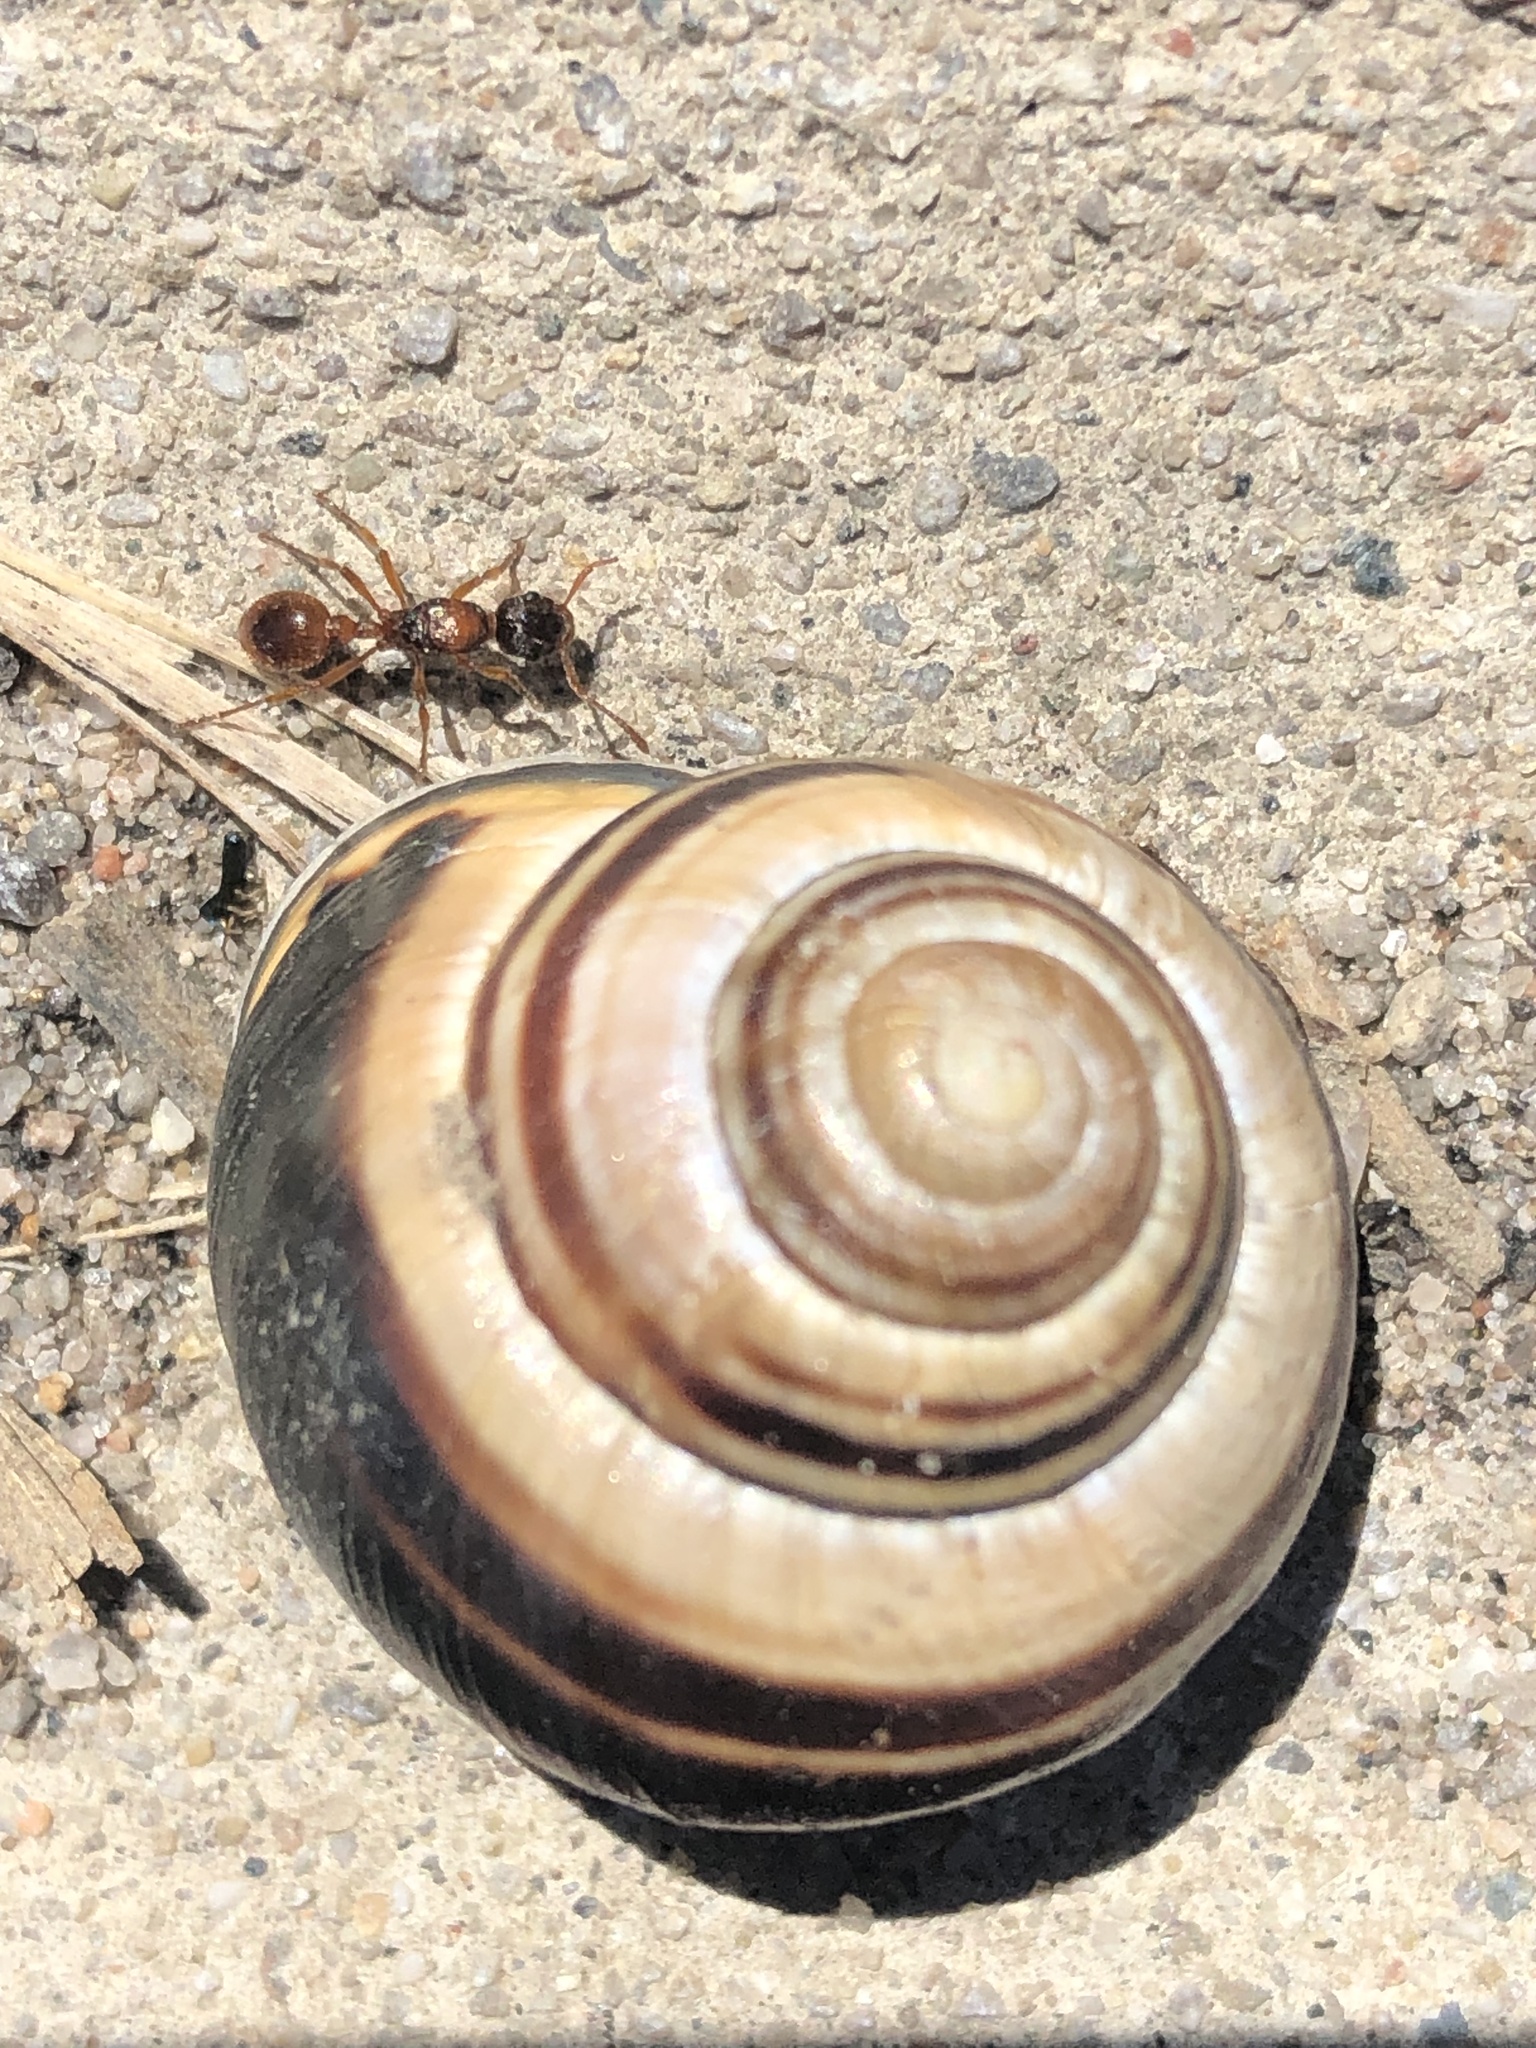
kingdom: Animalia
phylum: Mollusca
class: Gastropoda
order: Stylommatophora
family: Helicidae
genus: Cepaea
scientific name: Cepaea nemoralis
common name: Grovesnail
